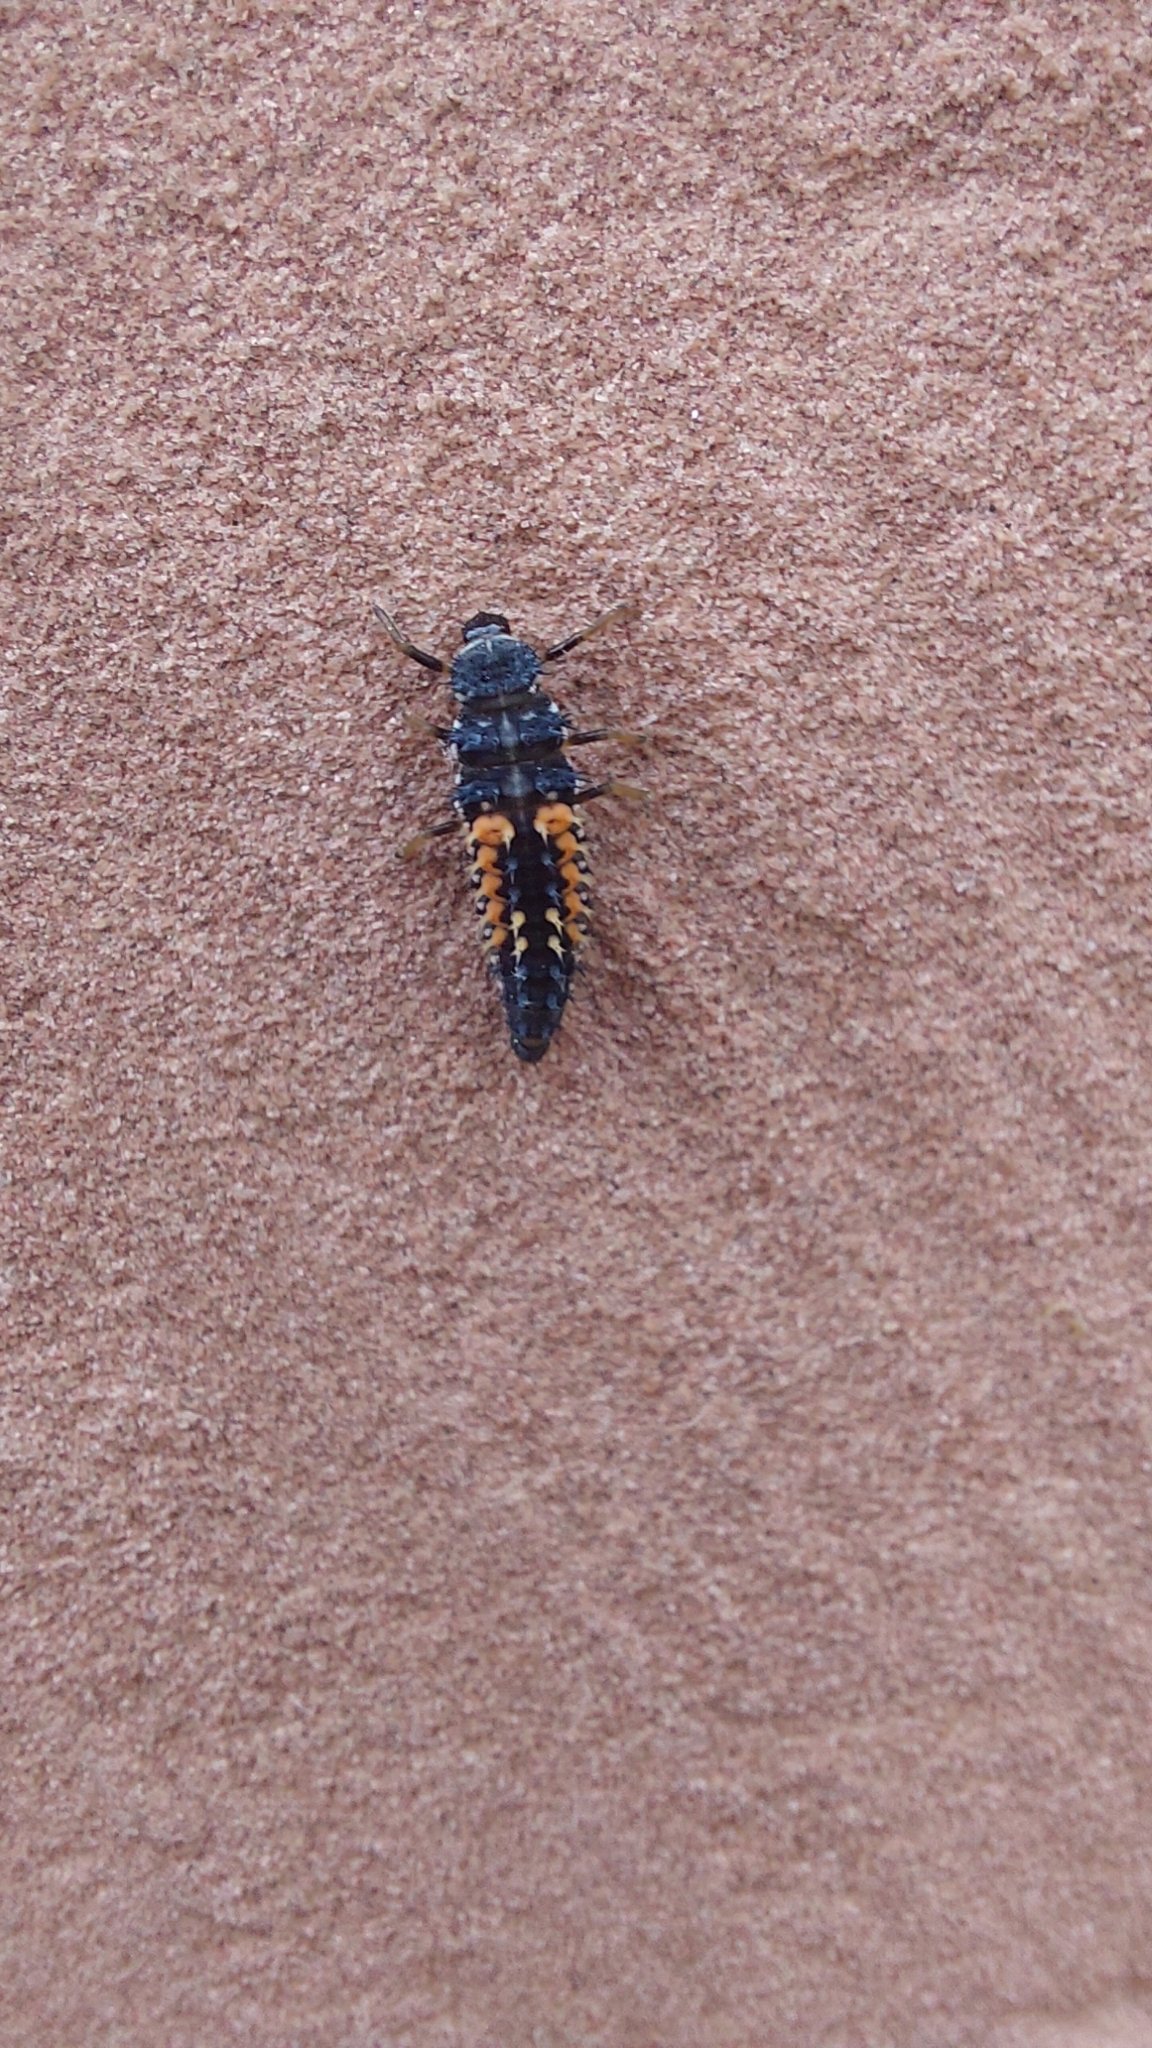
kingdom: Animalia
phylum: Arthropoda
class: Insecta
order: Coleoptera
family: Coccinellidae
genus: Harmonia
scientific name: Harmonia axyridis
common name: Harlequin ladybird
